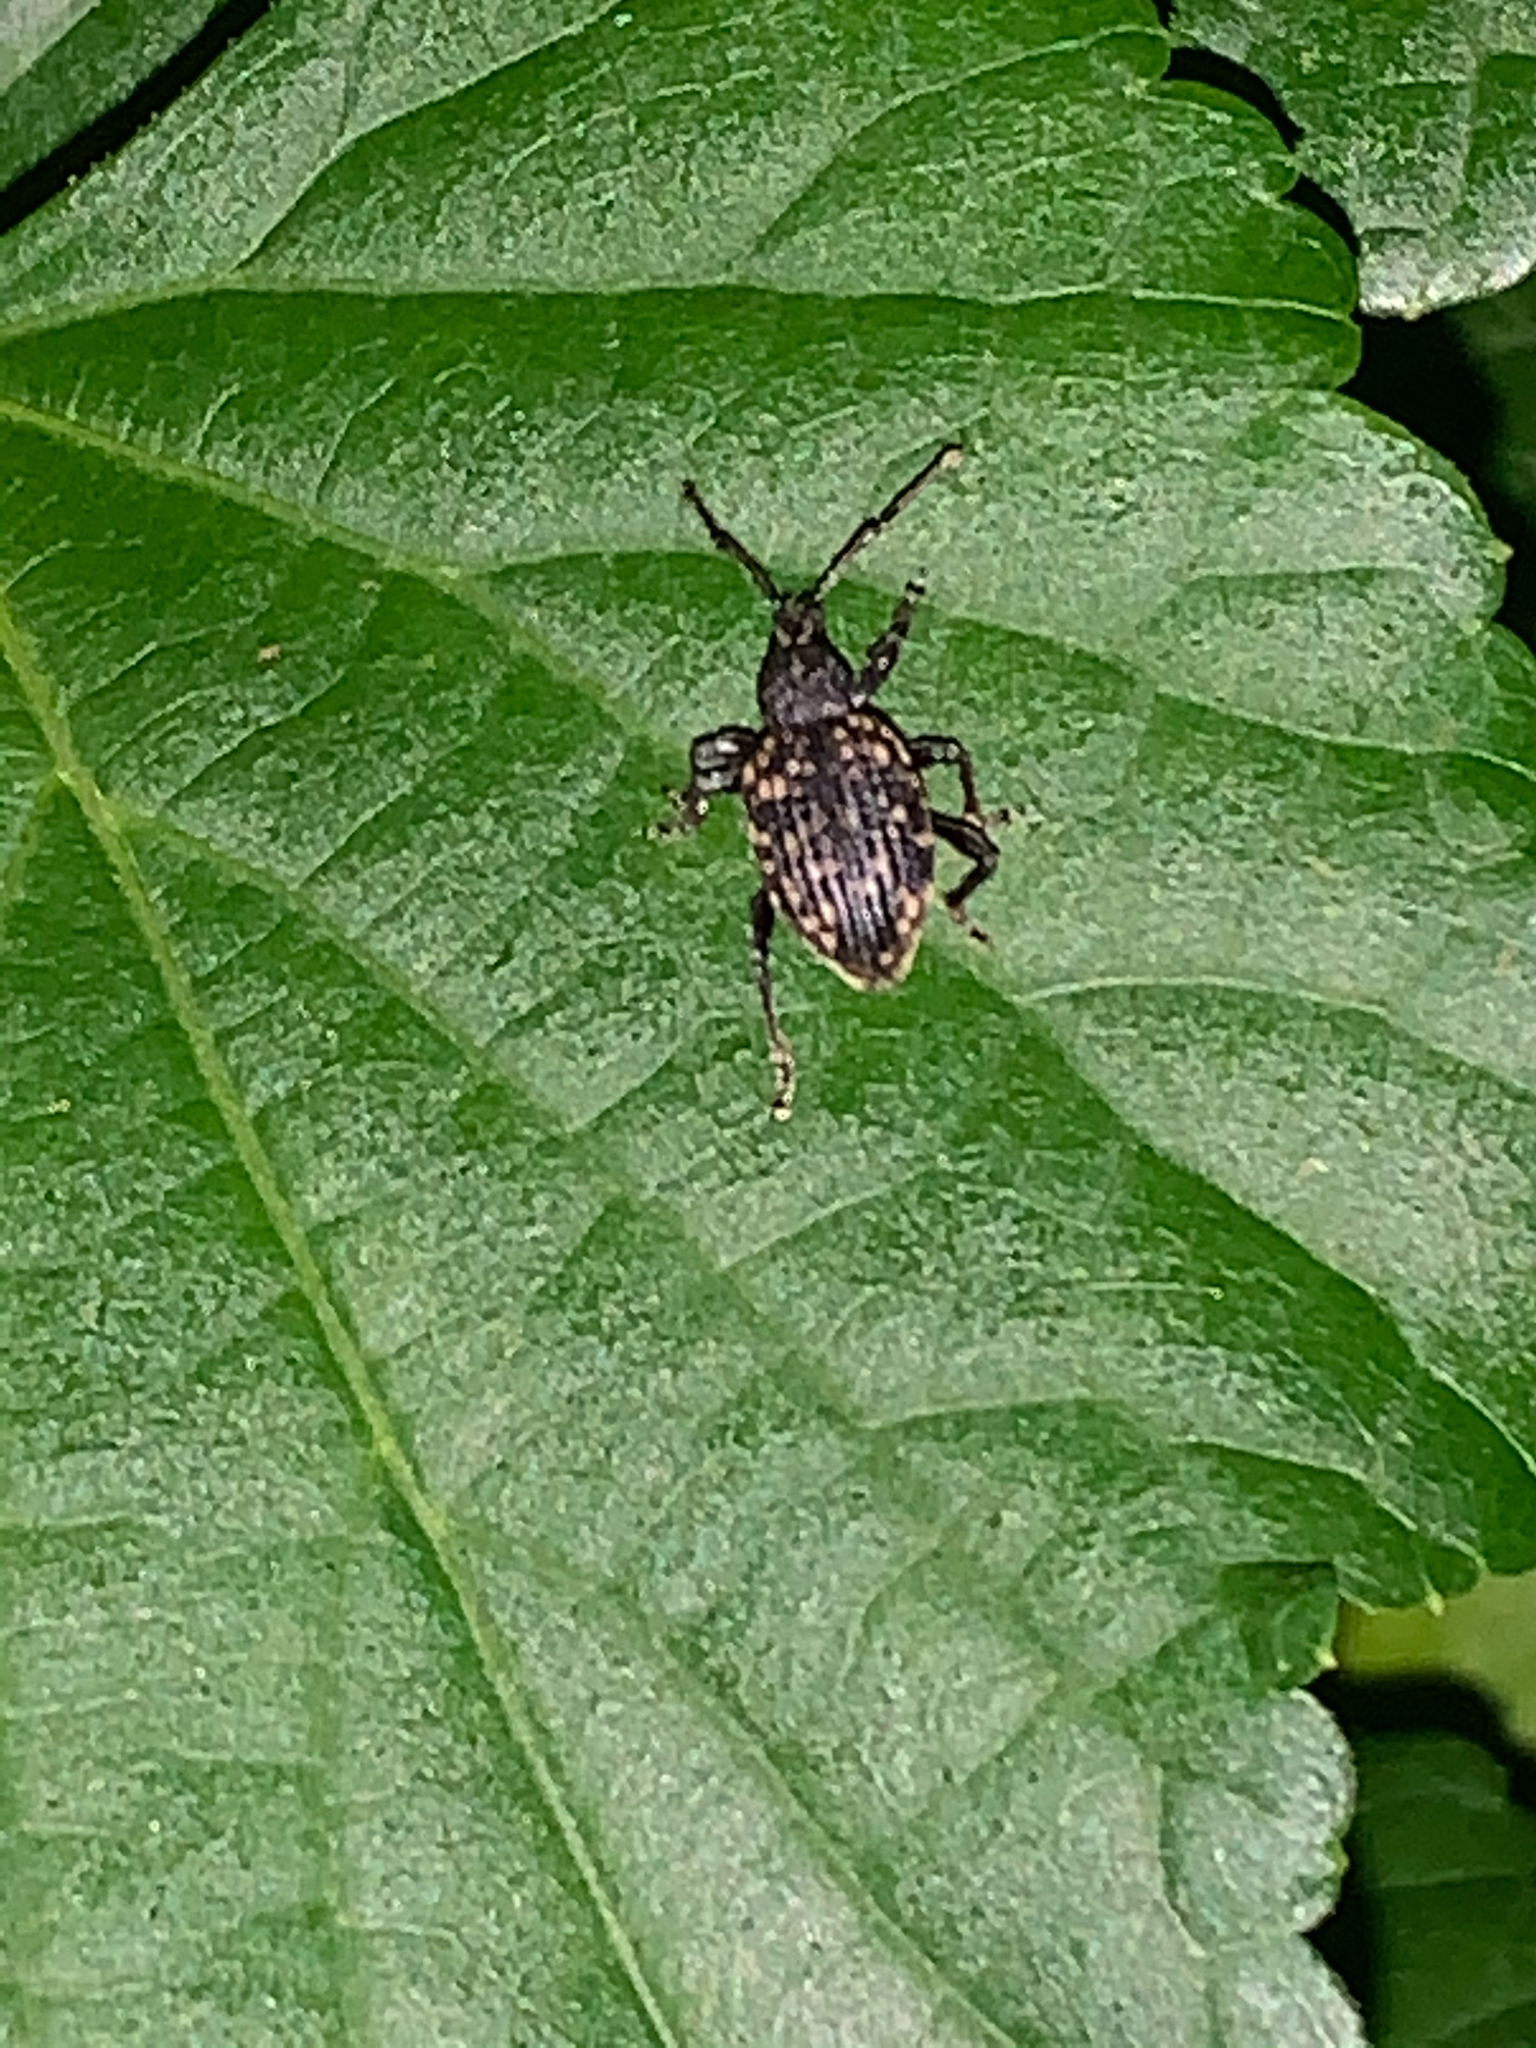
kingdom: Animalia
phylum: Arthropoda
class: Insecta
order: Coleoptera
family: Curculionidae
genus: Otiorhynchus
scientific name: Otiorhynchus sulcatus
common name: Black vine weevil
